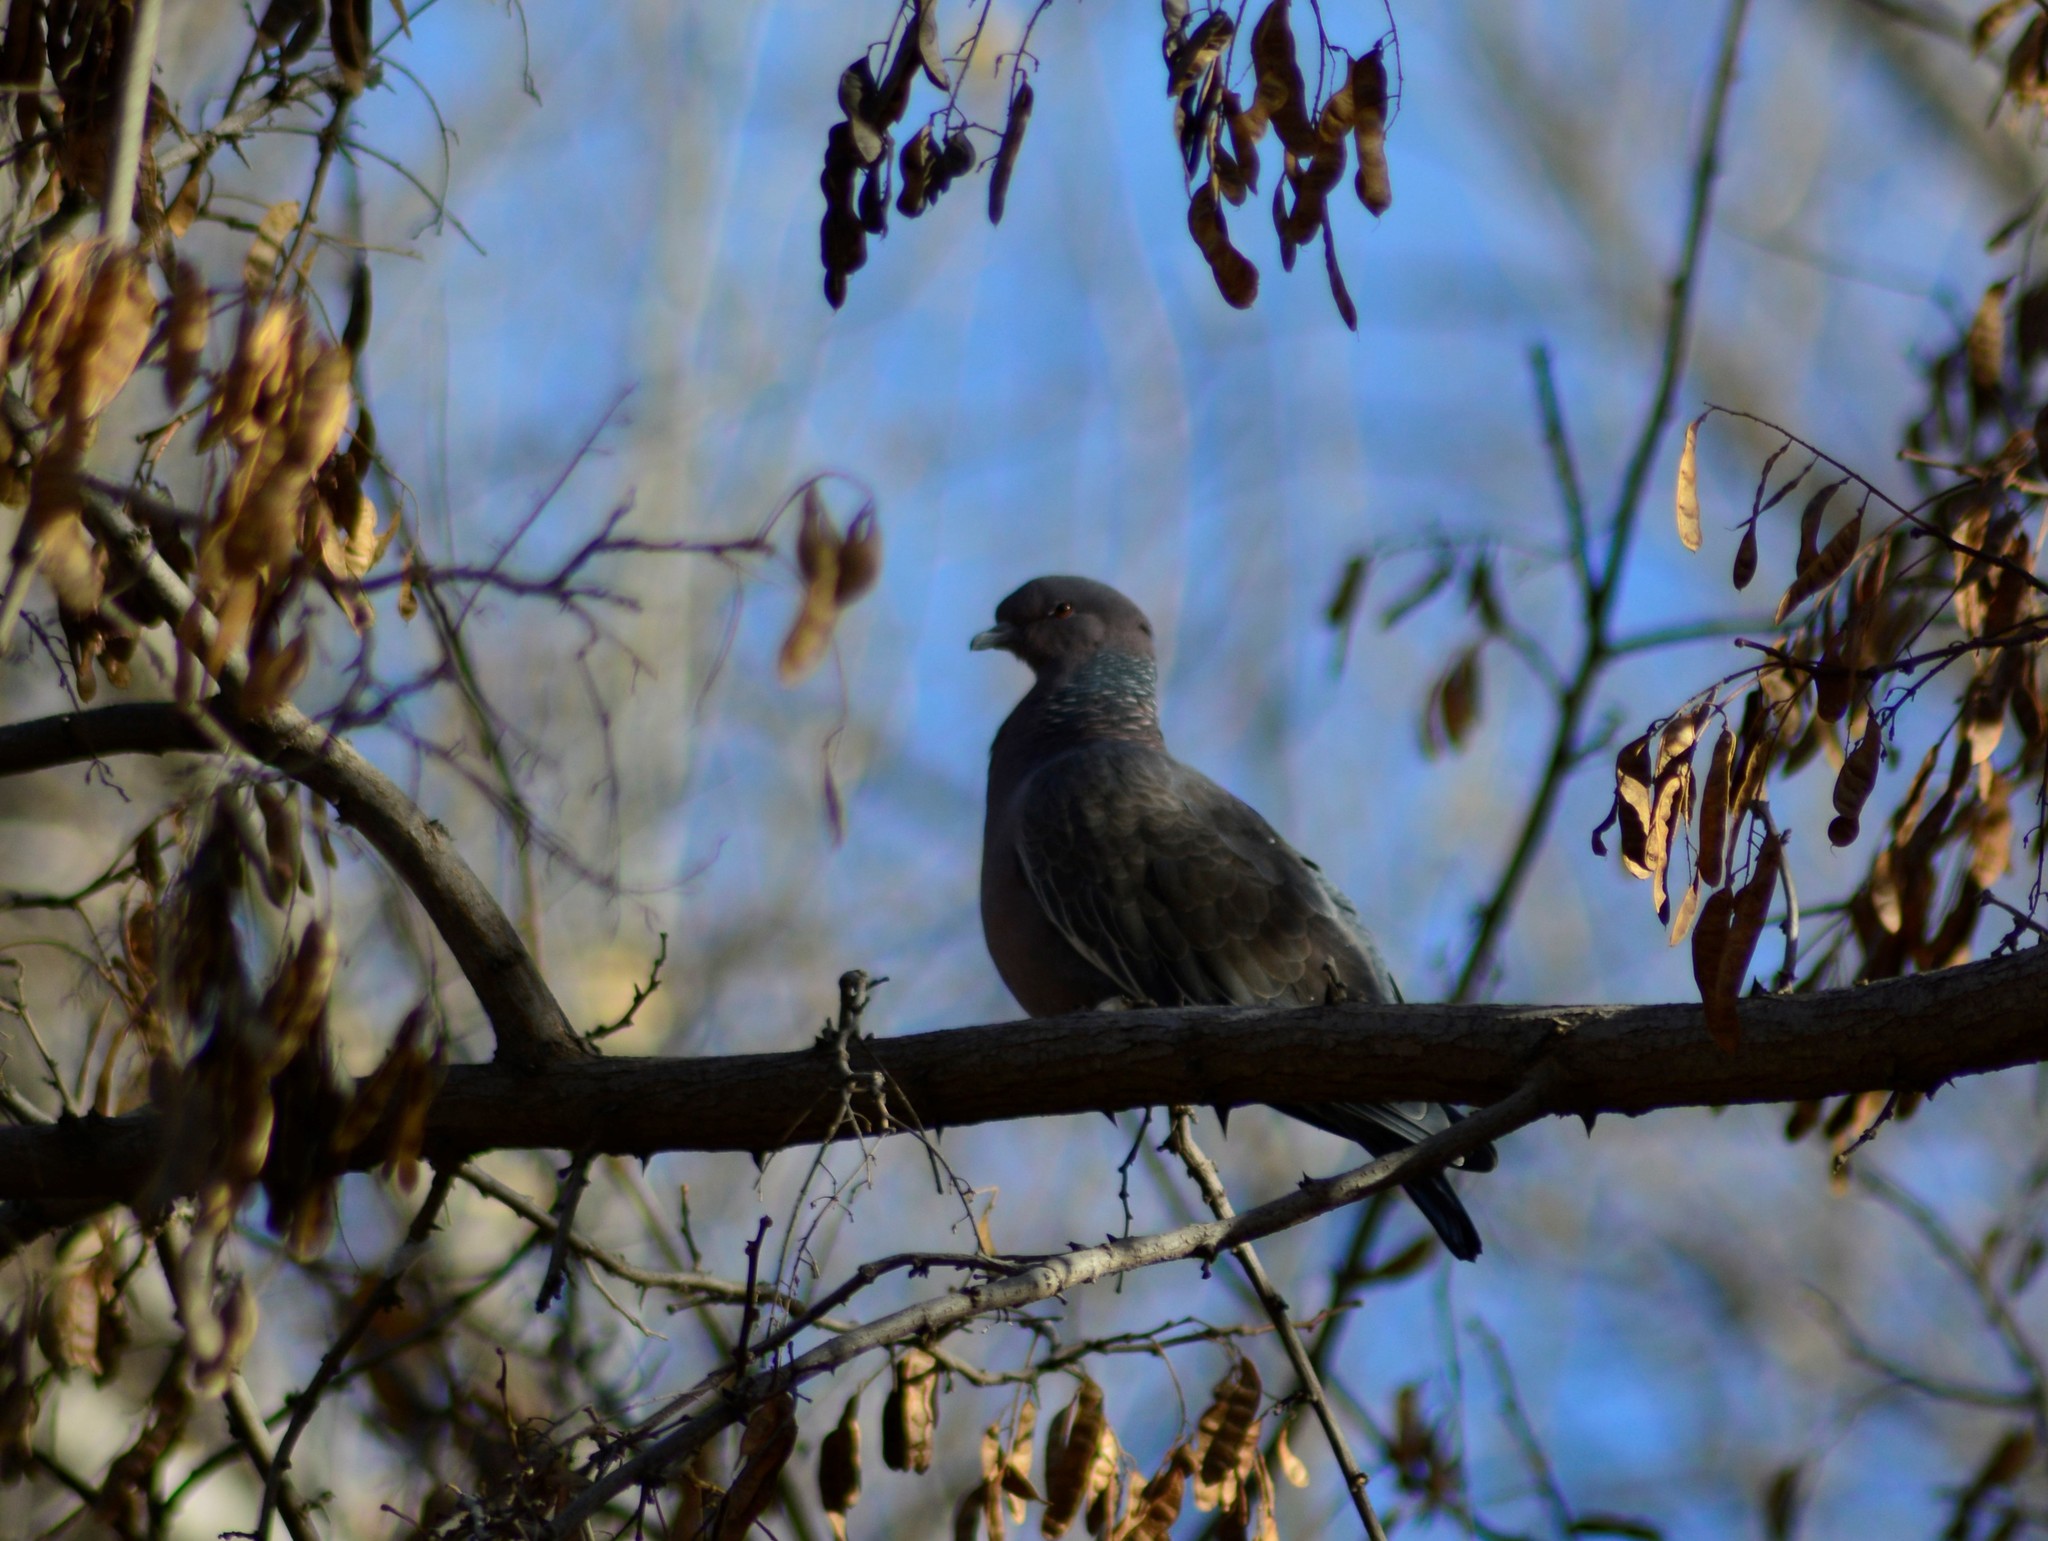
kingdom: Animalia
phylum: Chordata
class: Aves
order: Columbiformes
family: Columbidae
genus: Patagioenas
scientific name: Patagioenas picazuro
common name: Picazuro pigeon
